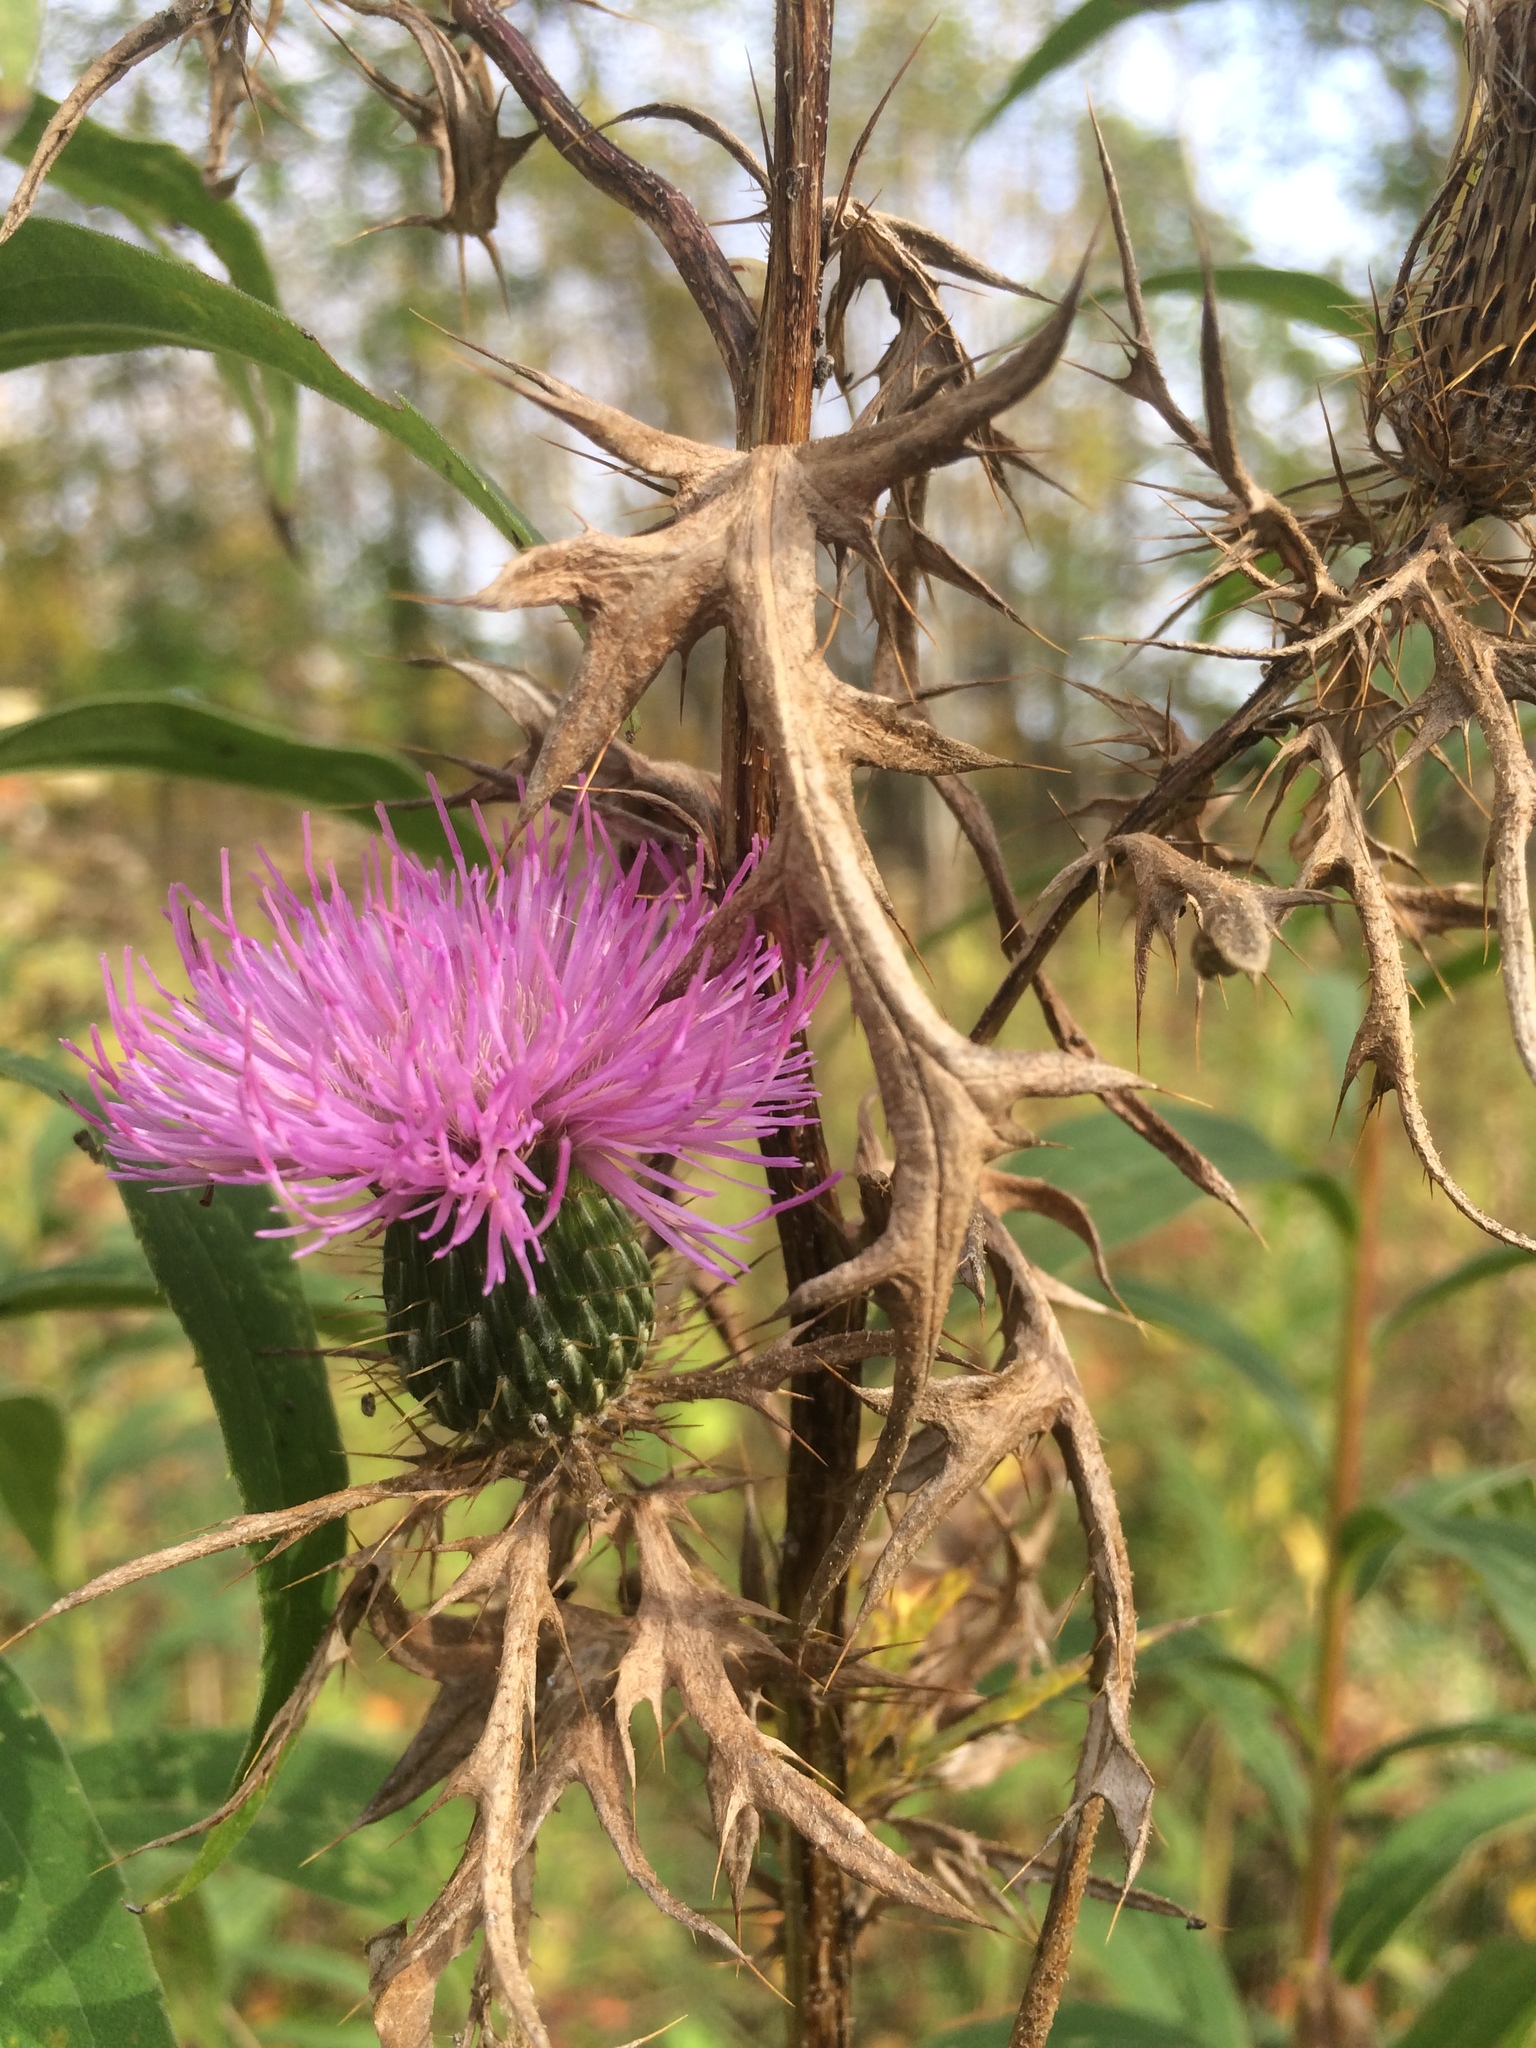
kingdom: Plantae
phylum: Tracheophyta
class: Magnoliopsida
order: Asterales
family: Asteraceae
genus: Cirsium
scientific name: Cirsium discolor
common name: Field thistle
